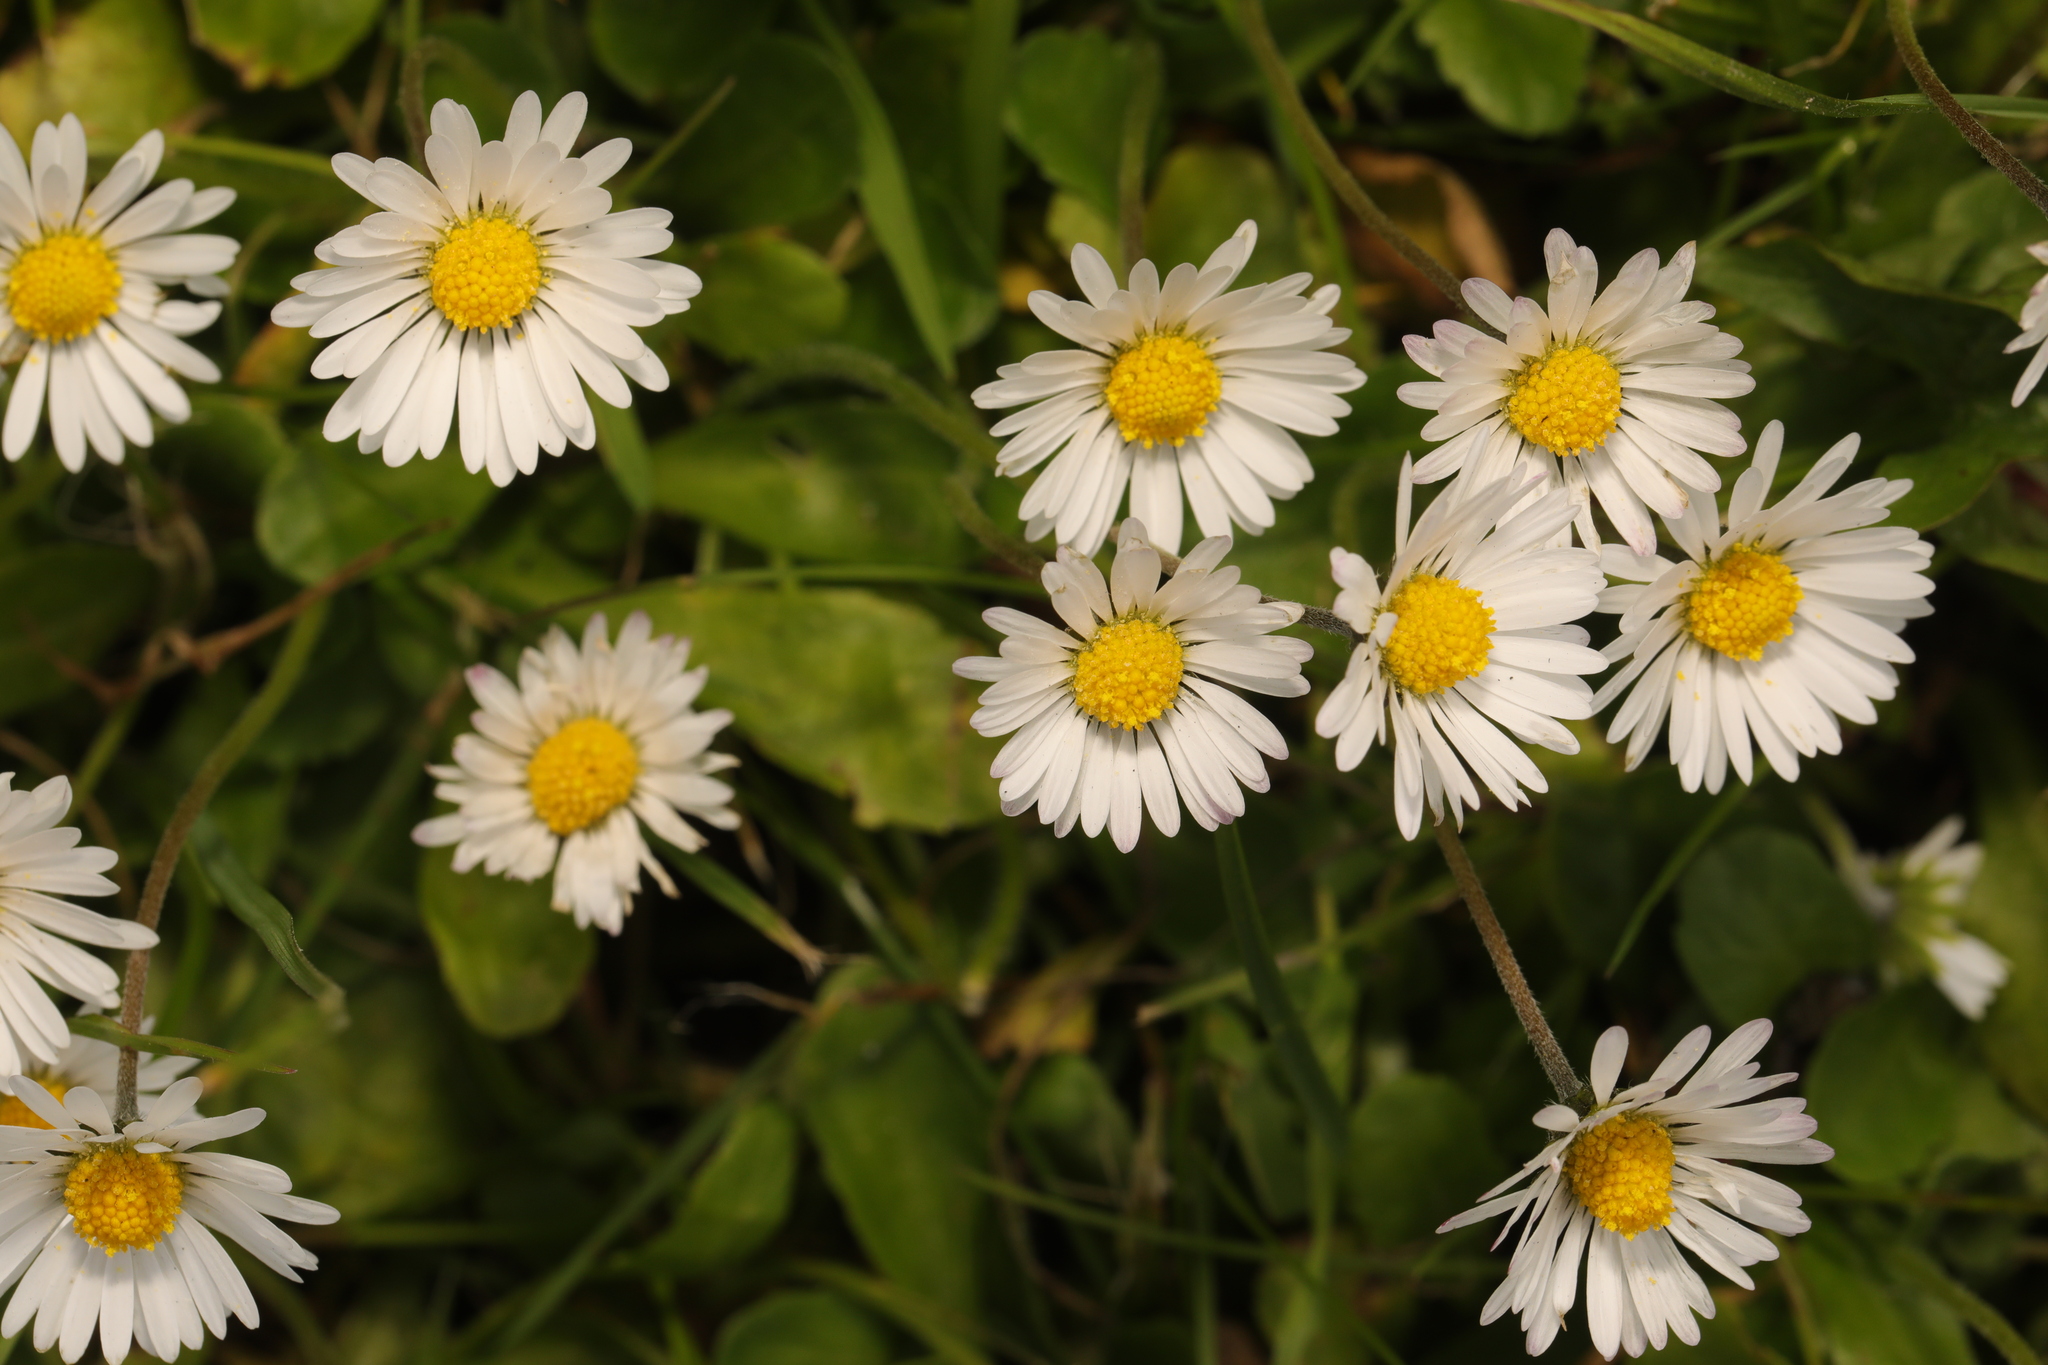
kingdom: Plantae
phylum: Tracheophyta
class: Magnoliopsida
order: Asterales
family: Asteraceae
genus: Bellis
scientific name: Bellis perennis
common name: Lawndaisy
